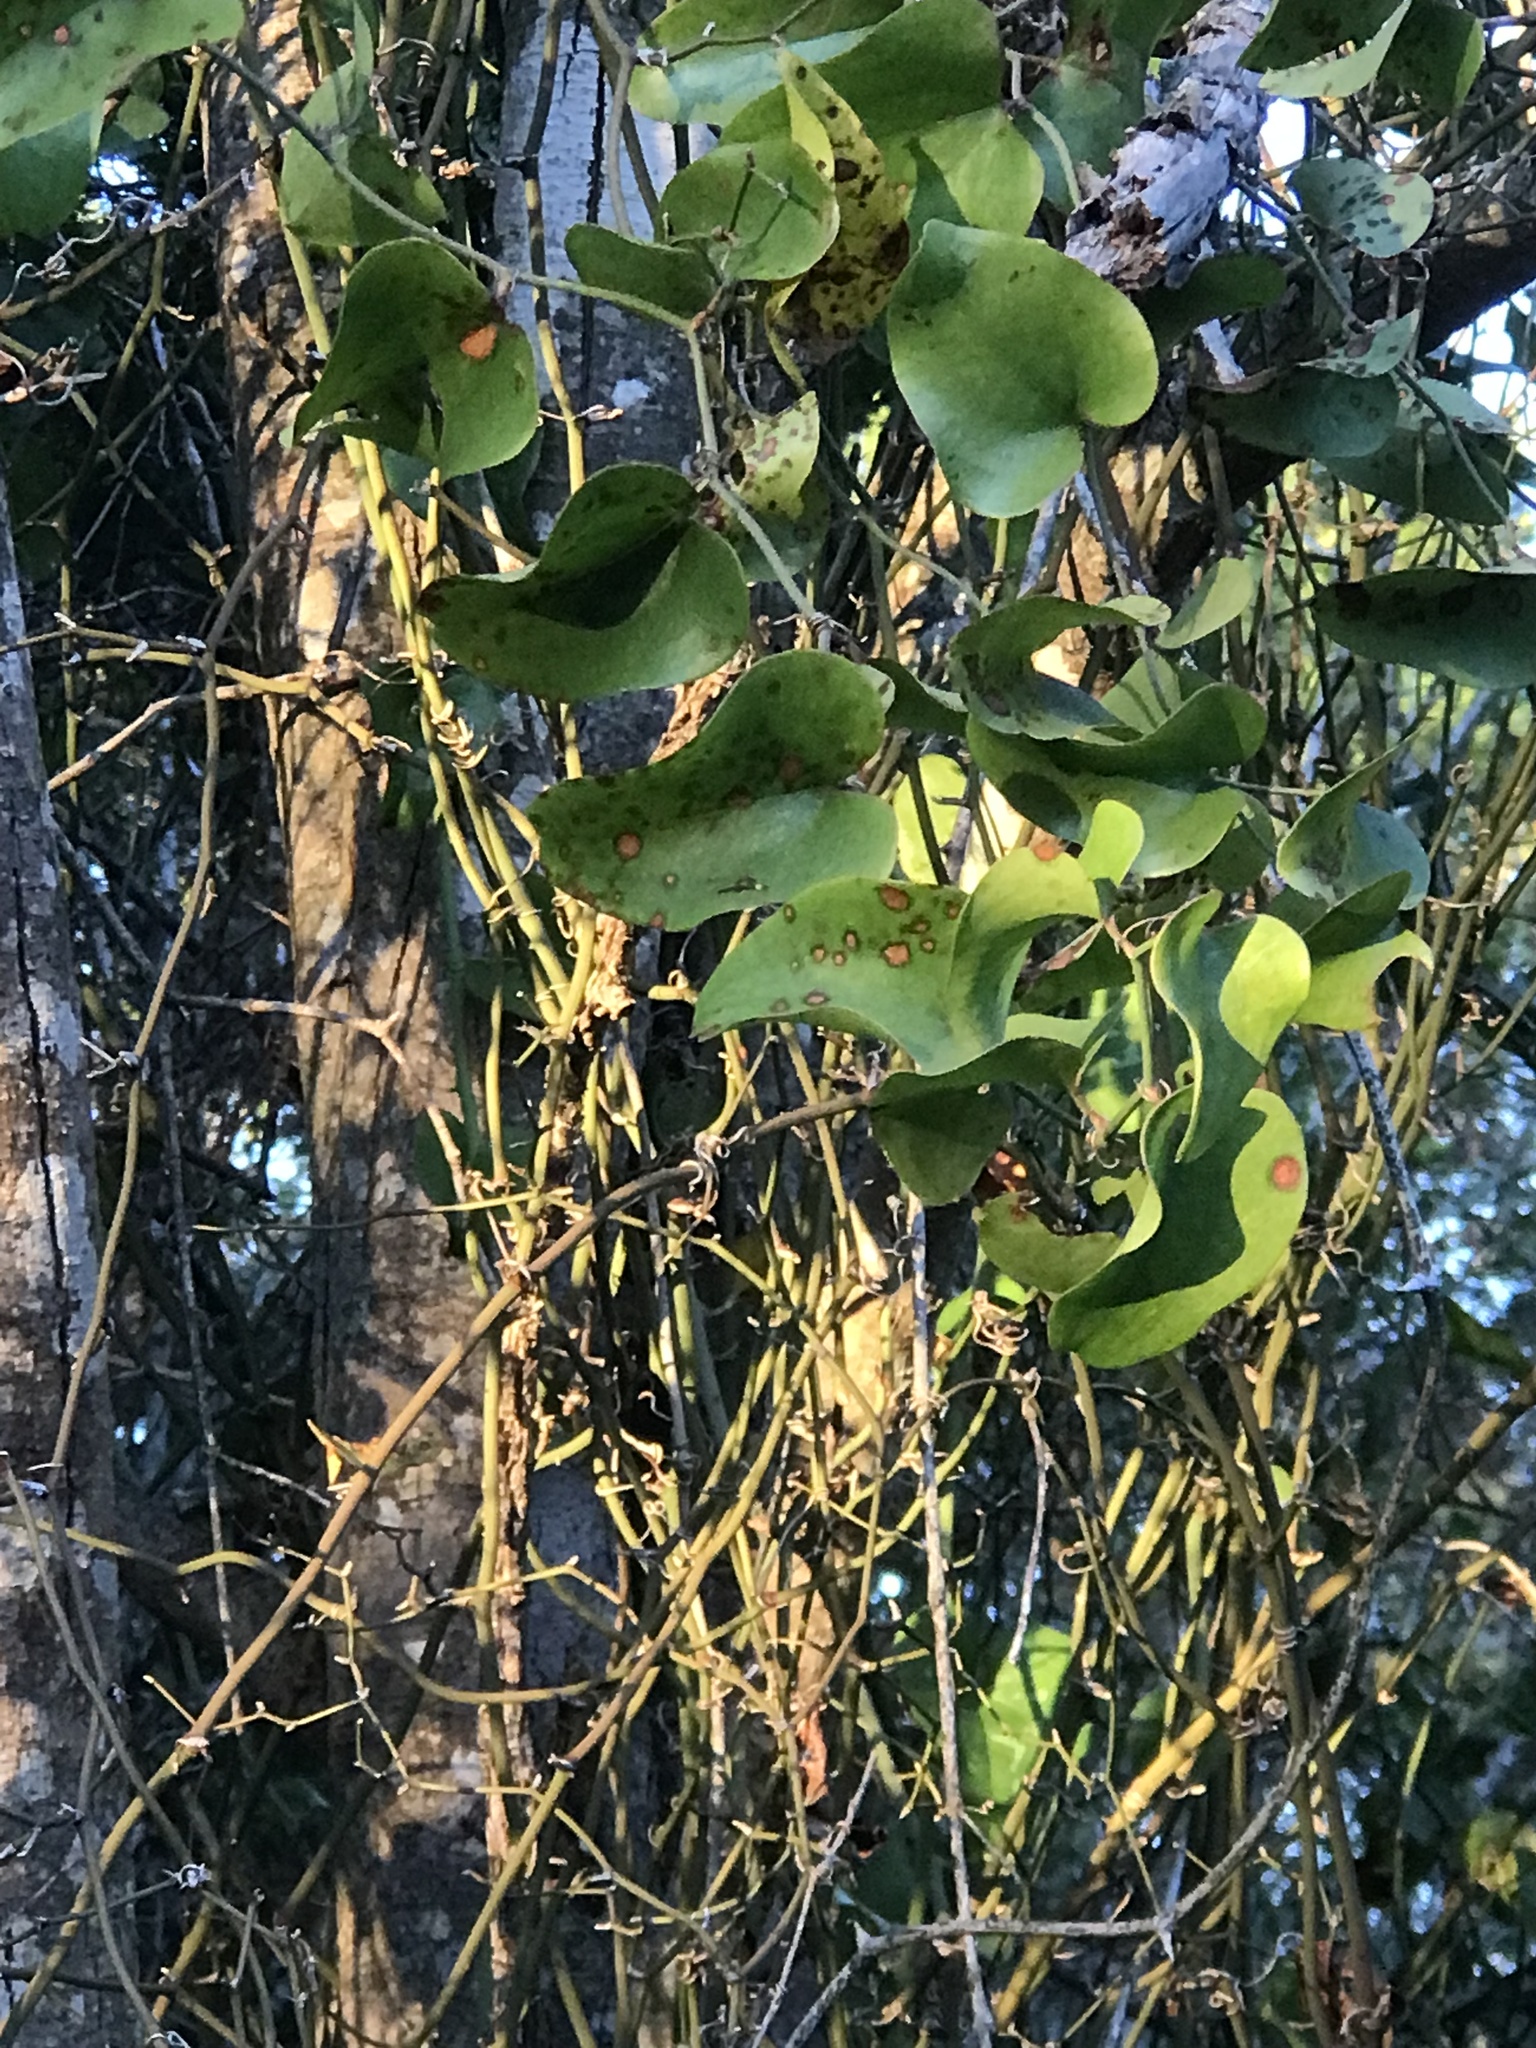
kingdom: Plantae
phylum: Tracheophyta
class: Liliopsida
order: Liliales
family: Smilacaceae
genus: Smilax
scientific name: Smilax bona-nox
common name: Catbrier
